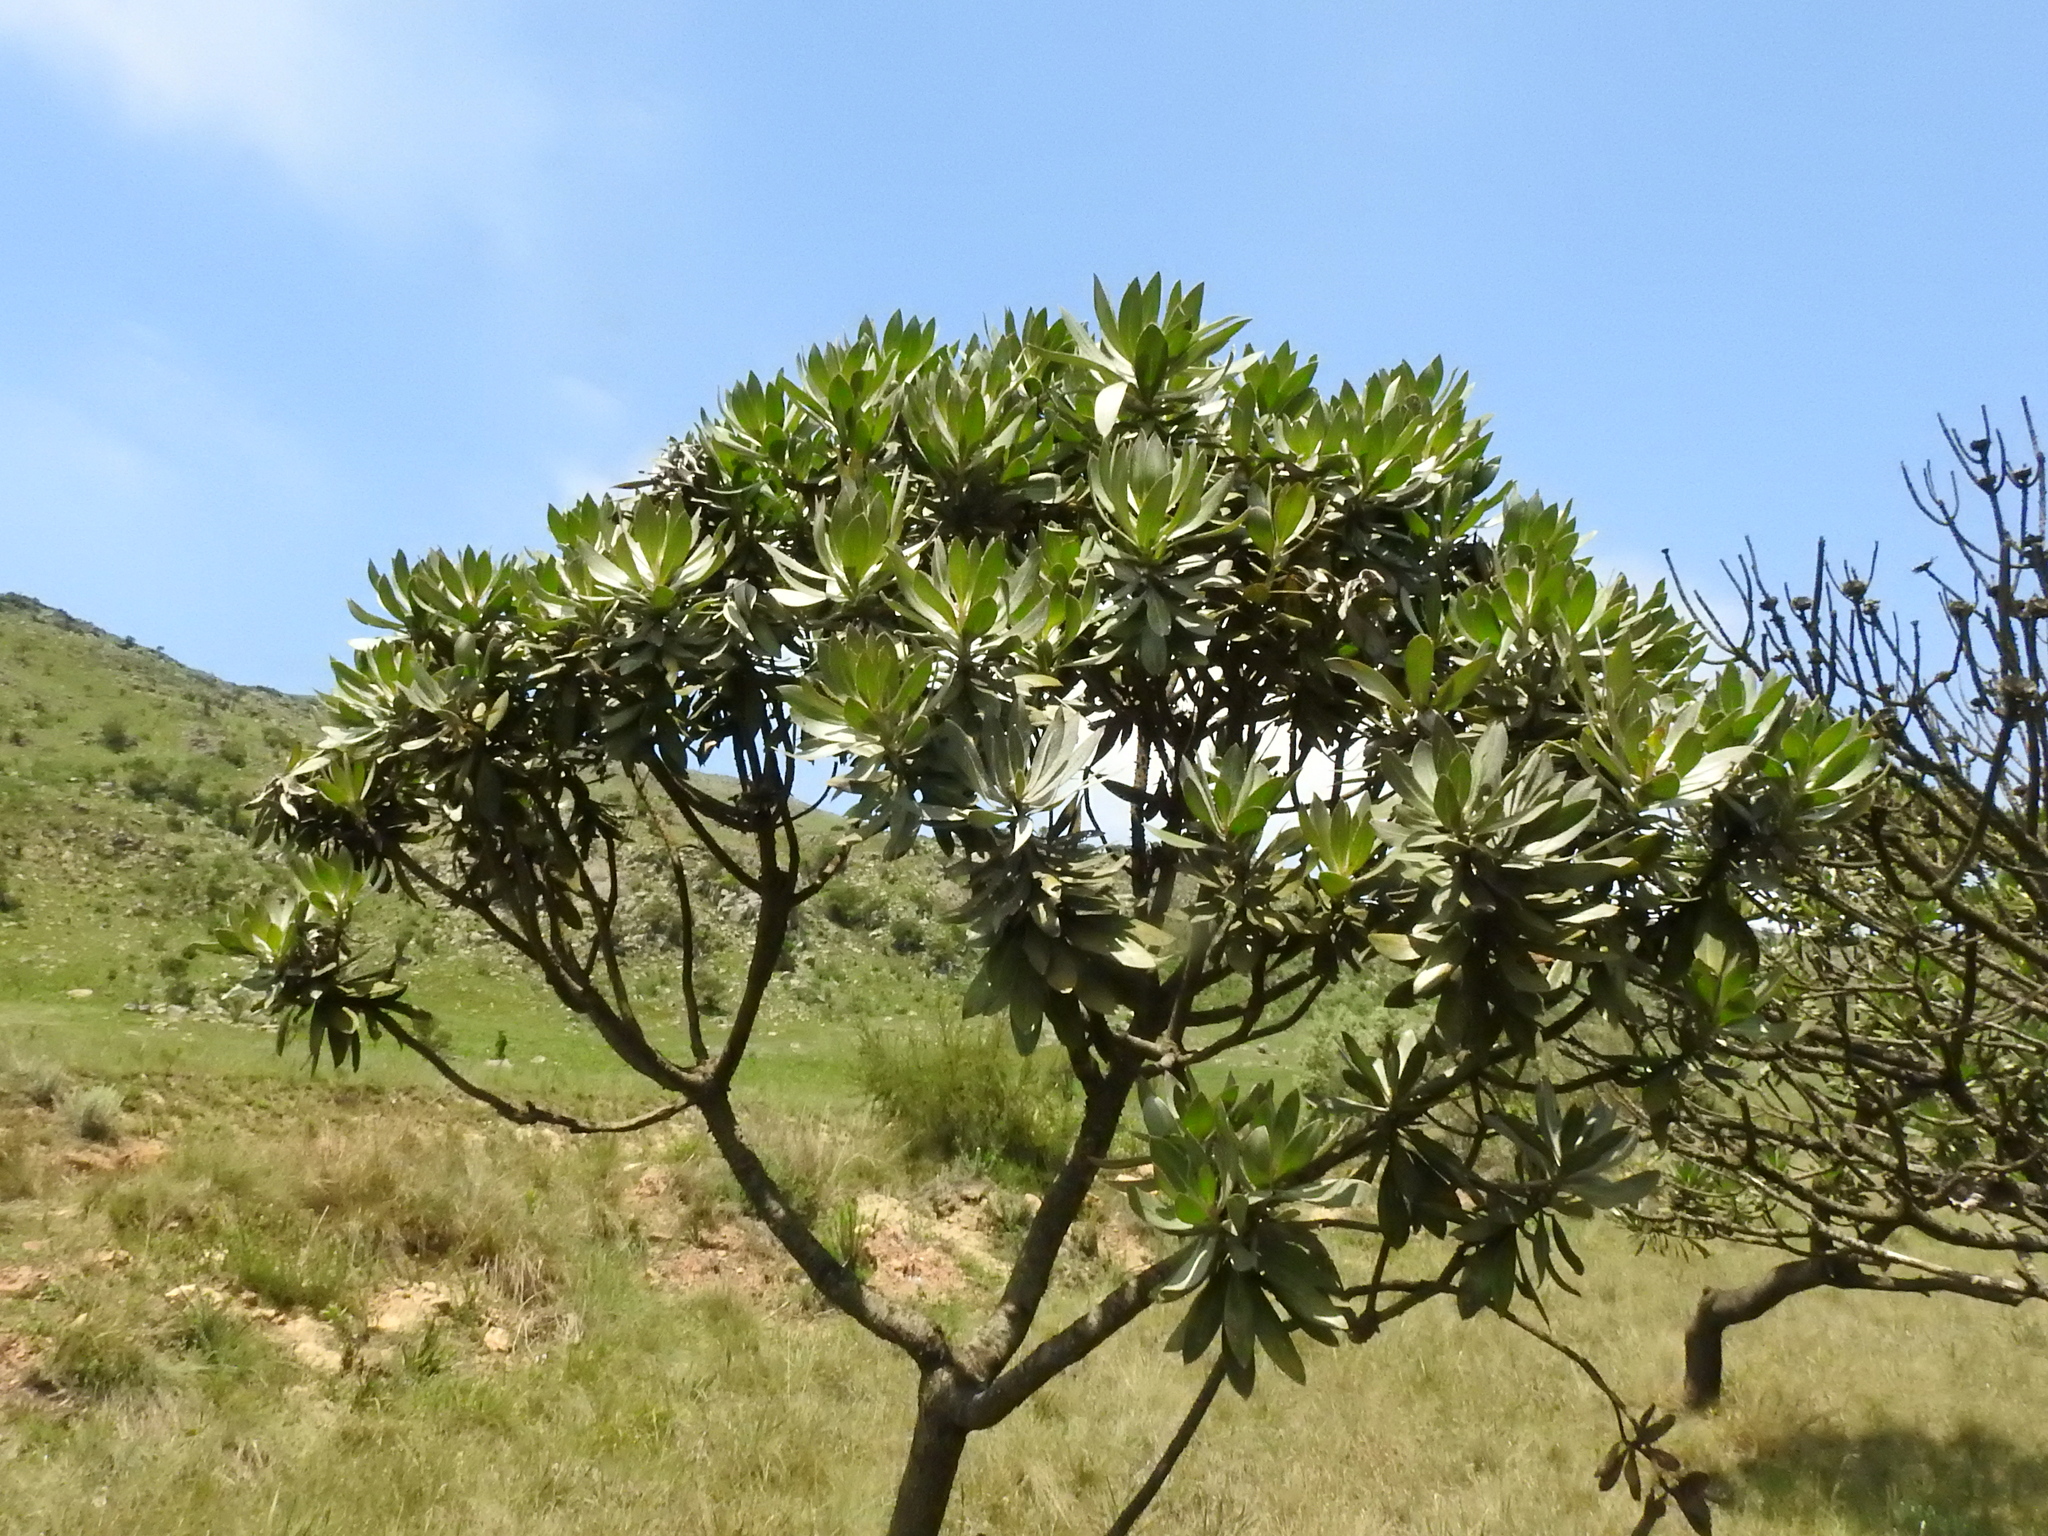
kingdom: Plantae
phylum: Tracheophyta
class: Magnoliopsida
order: Proteales
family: Proteaceae
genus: Protea
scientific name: Protea roupelliae
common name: Silver sugarbush
